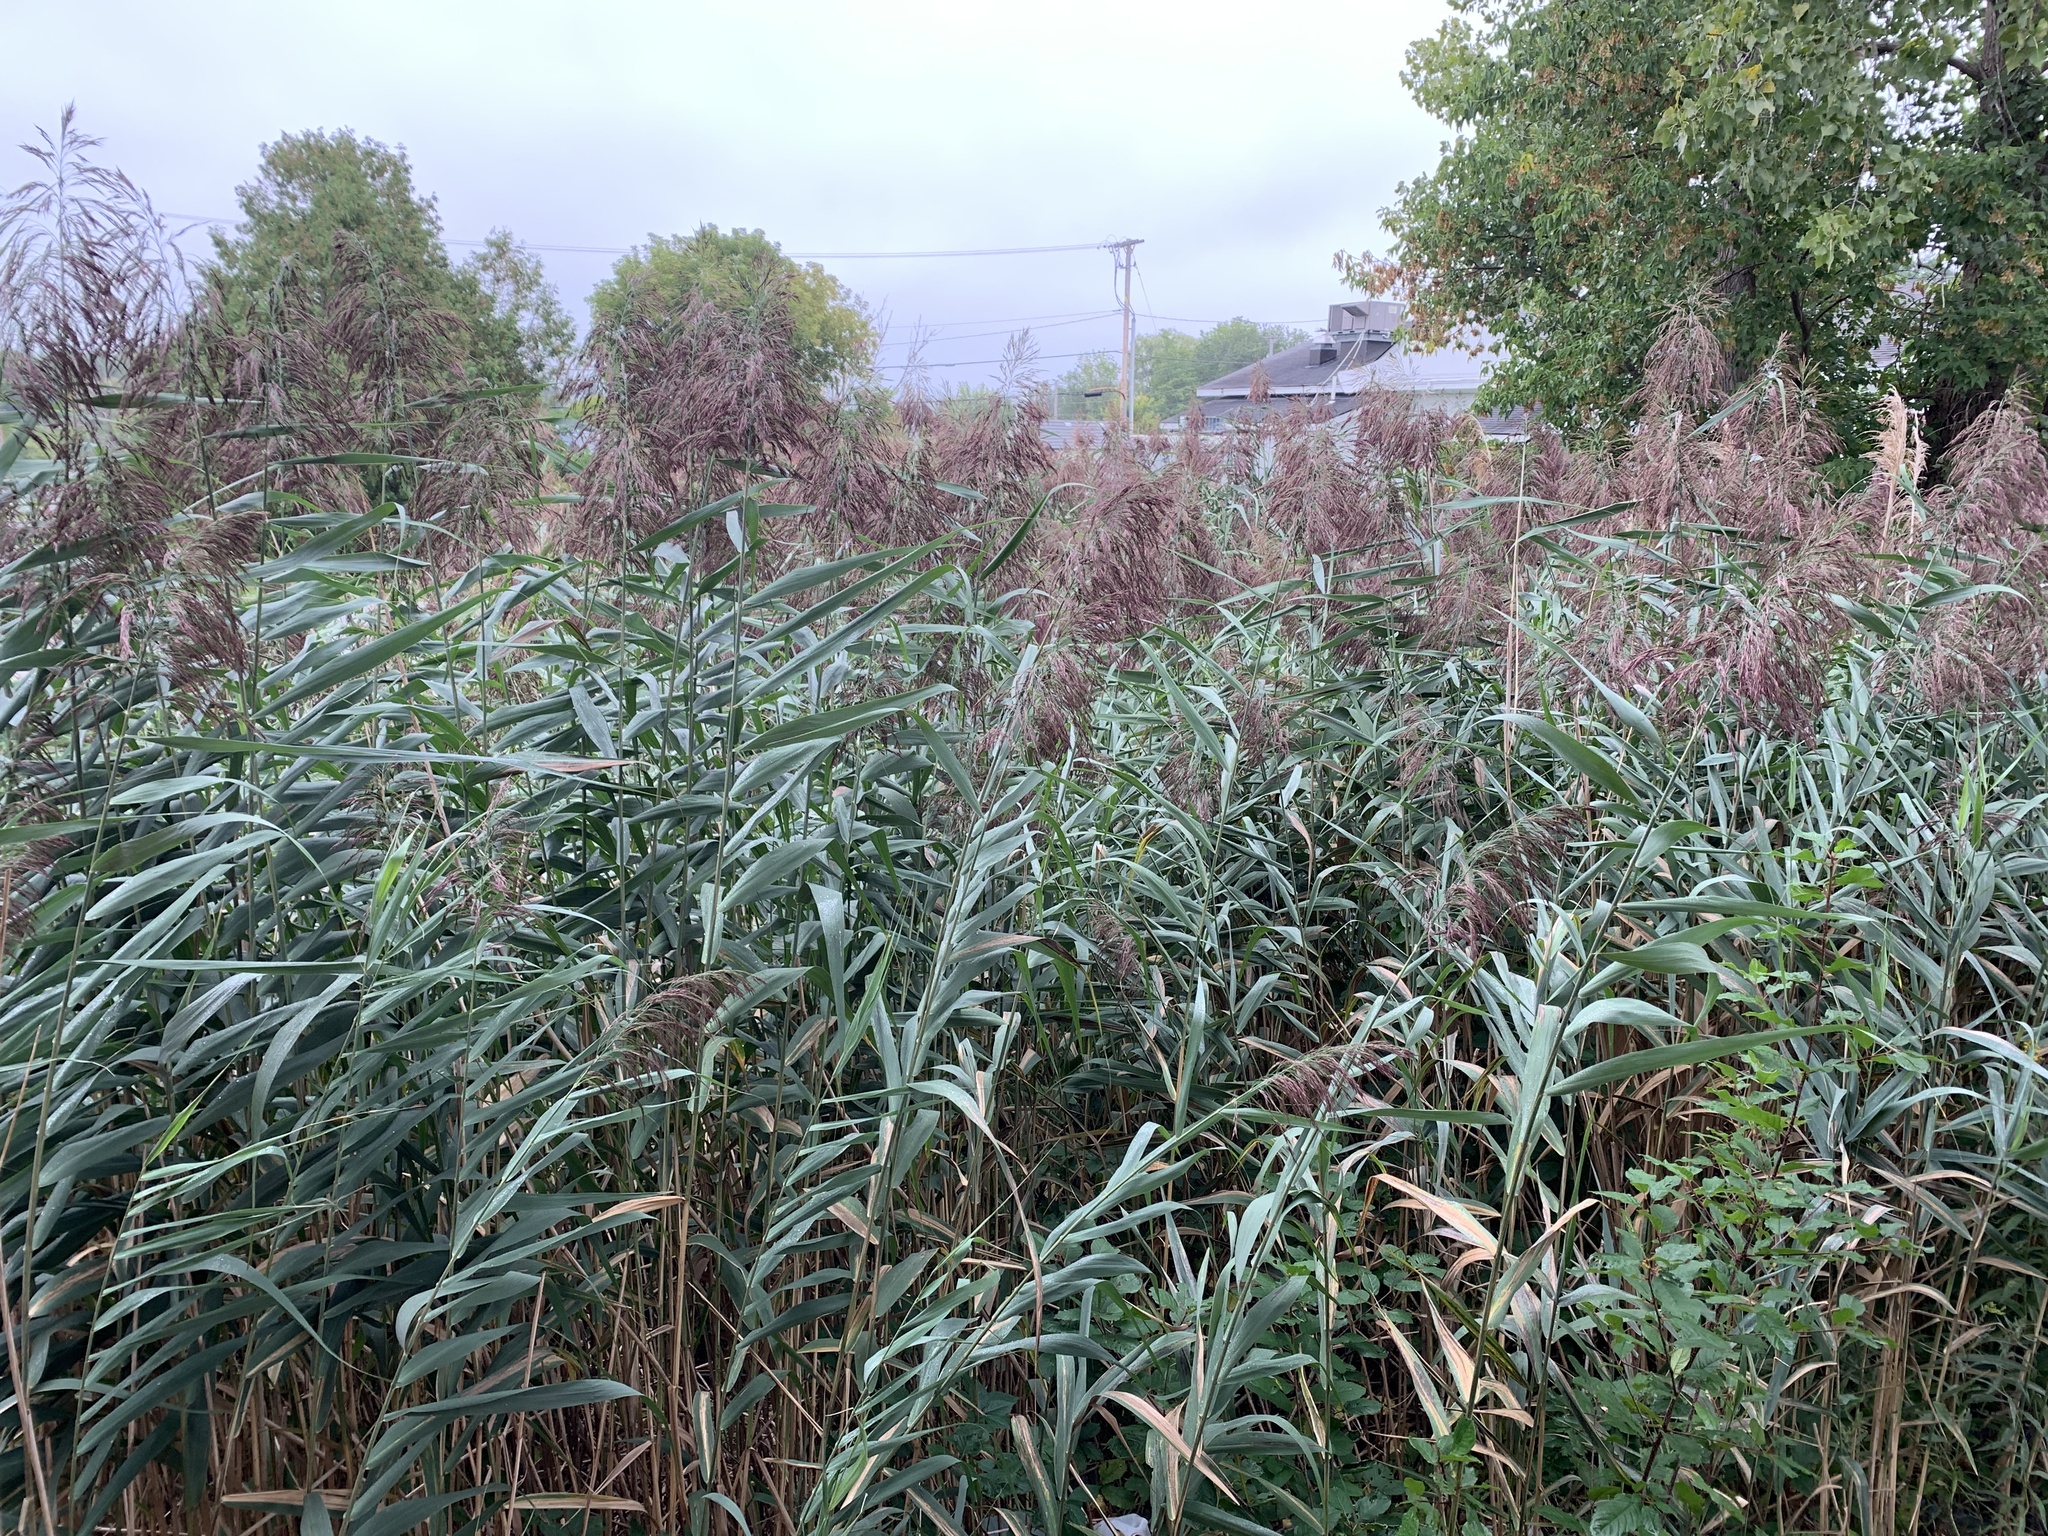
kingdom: Plantae
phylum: Tracheophyta
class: Liliopsida
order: Poales
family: Poaceae
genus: Phragmites
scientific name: Phragmites australis
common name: Common reed
